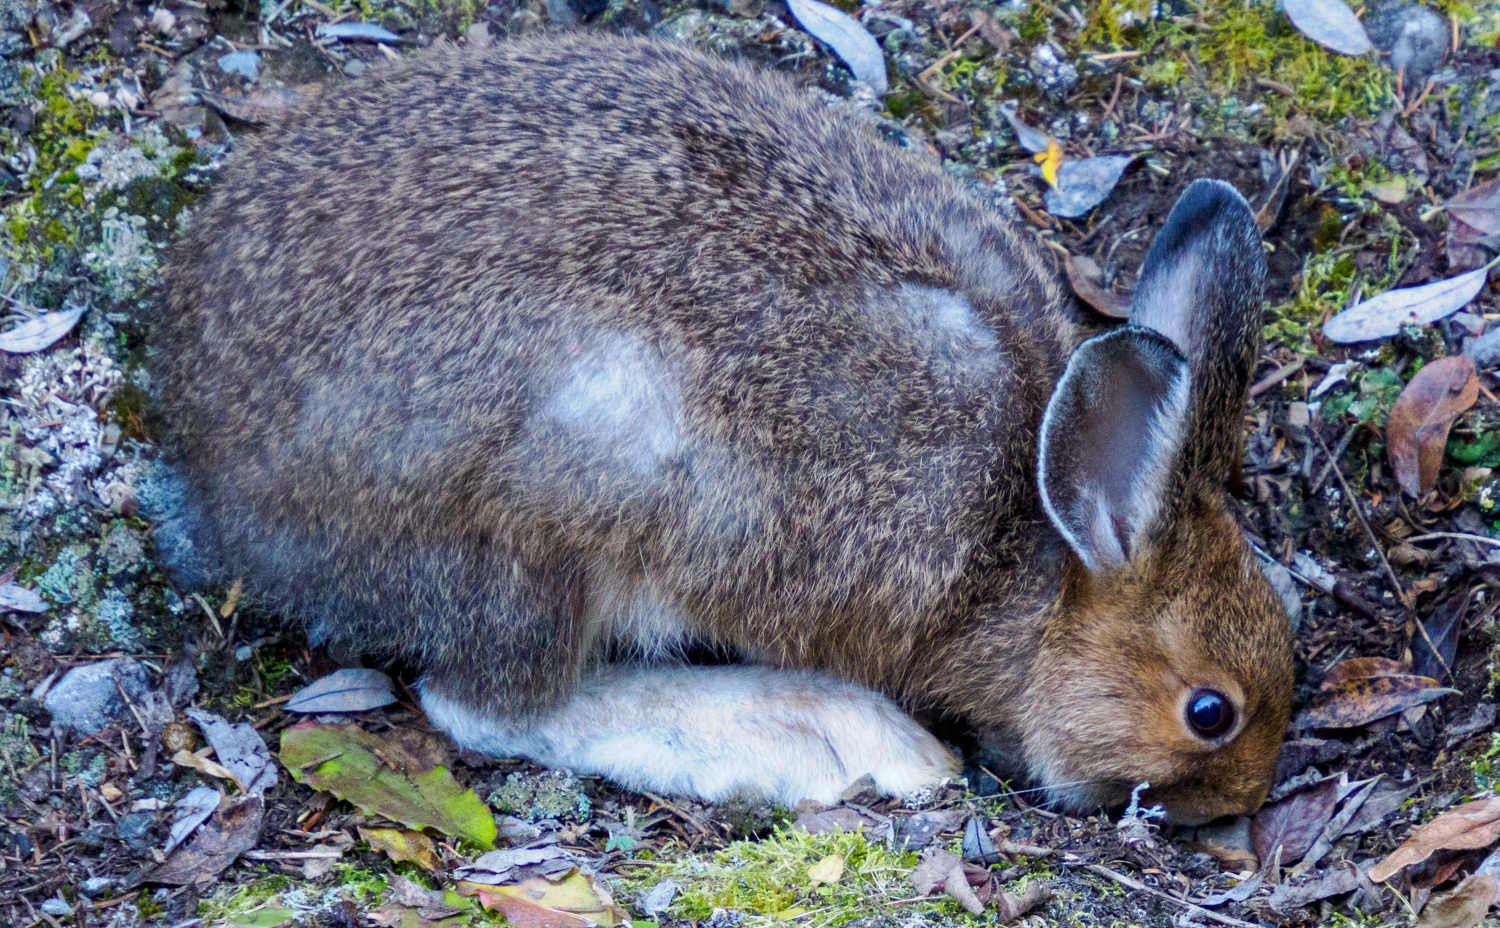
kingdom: Animalia
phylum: Chordata
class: Mammalia
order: Lagomorpha
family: Leporidae
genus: Lepus
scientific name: Lepus americanus
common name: Snowshoe hare
